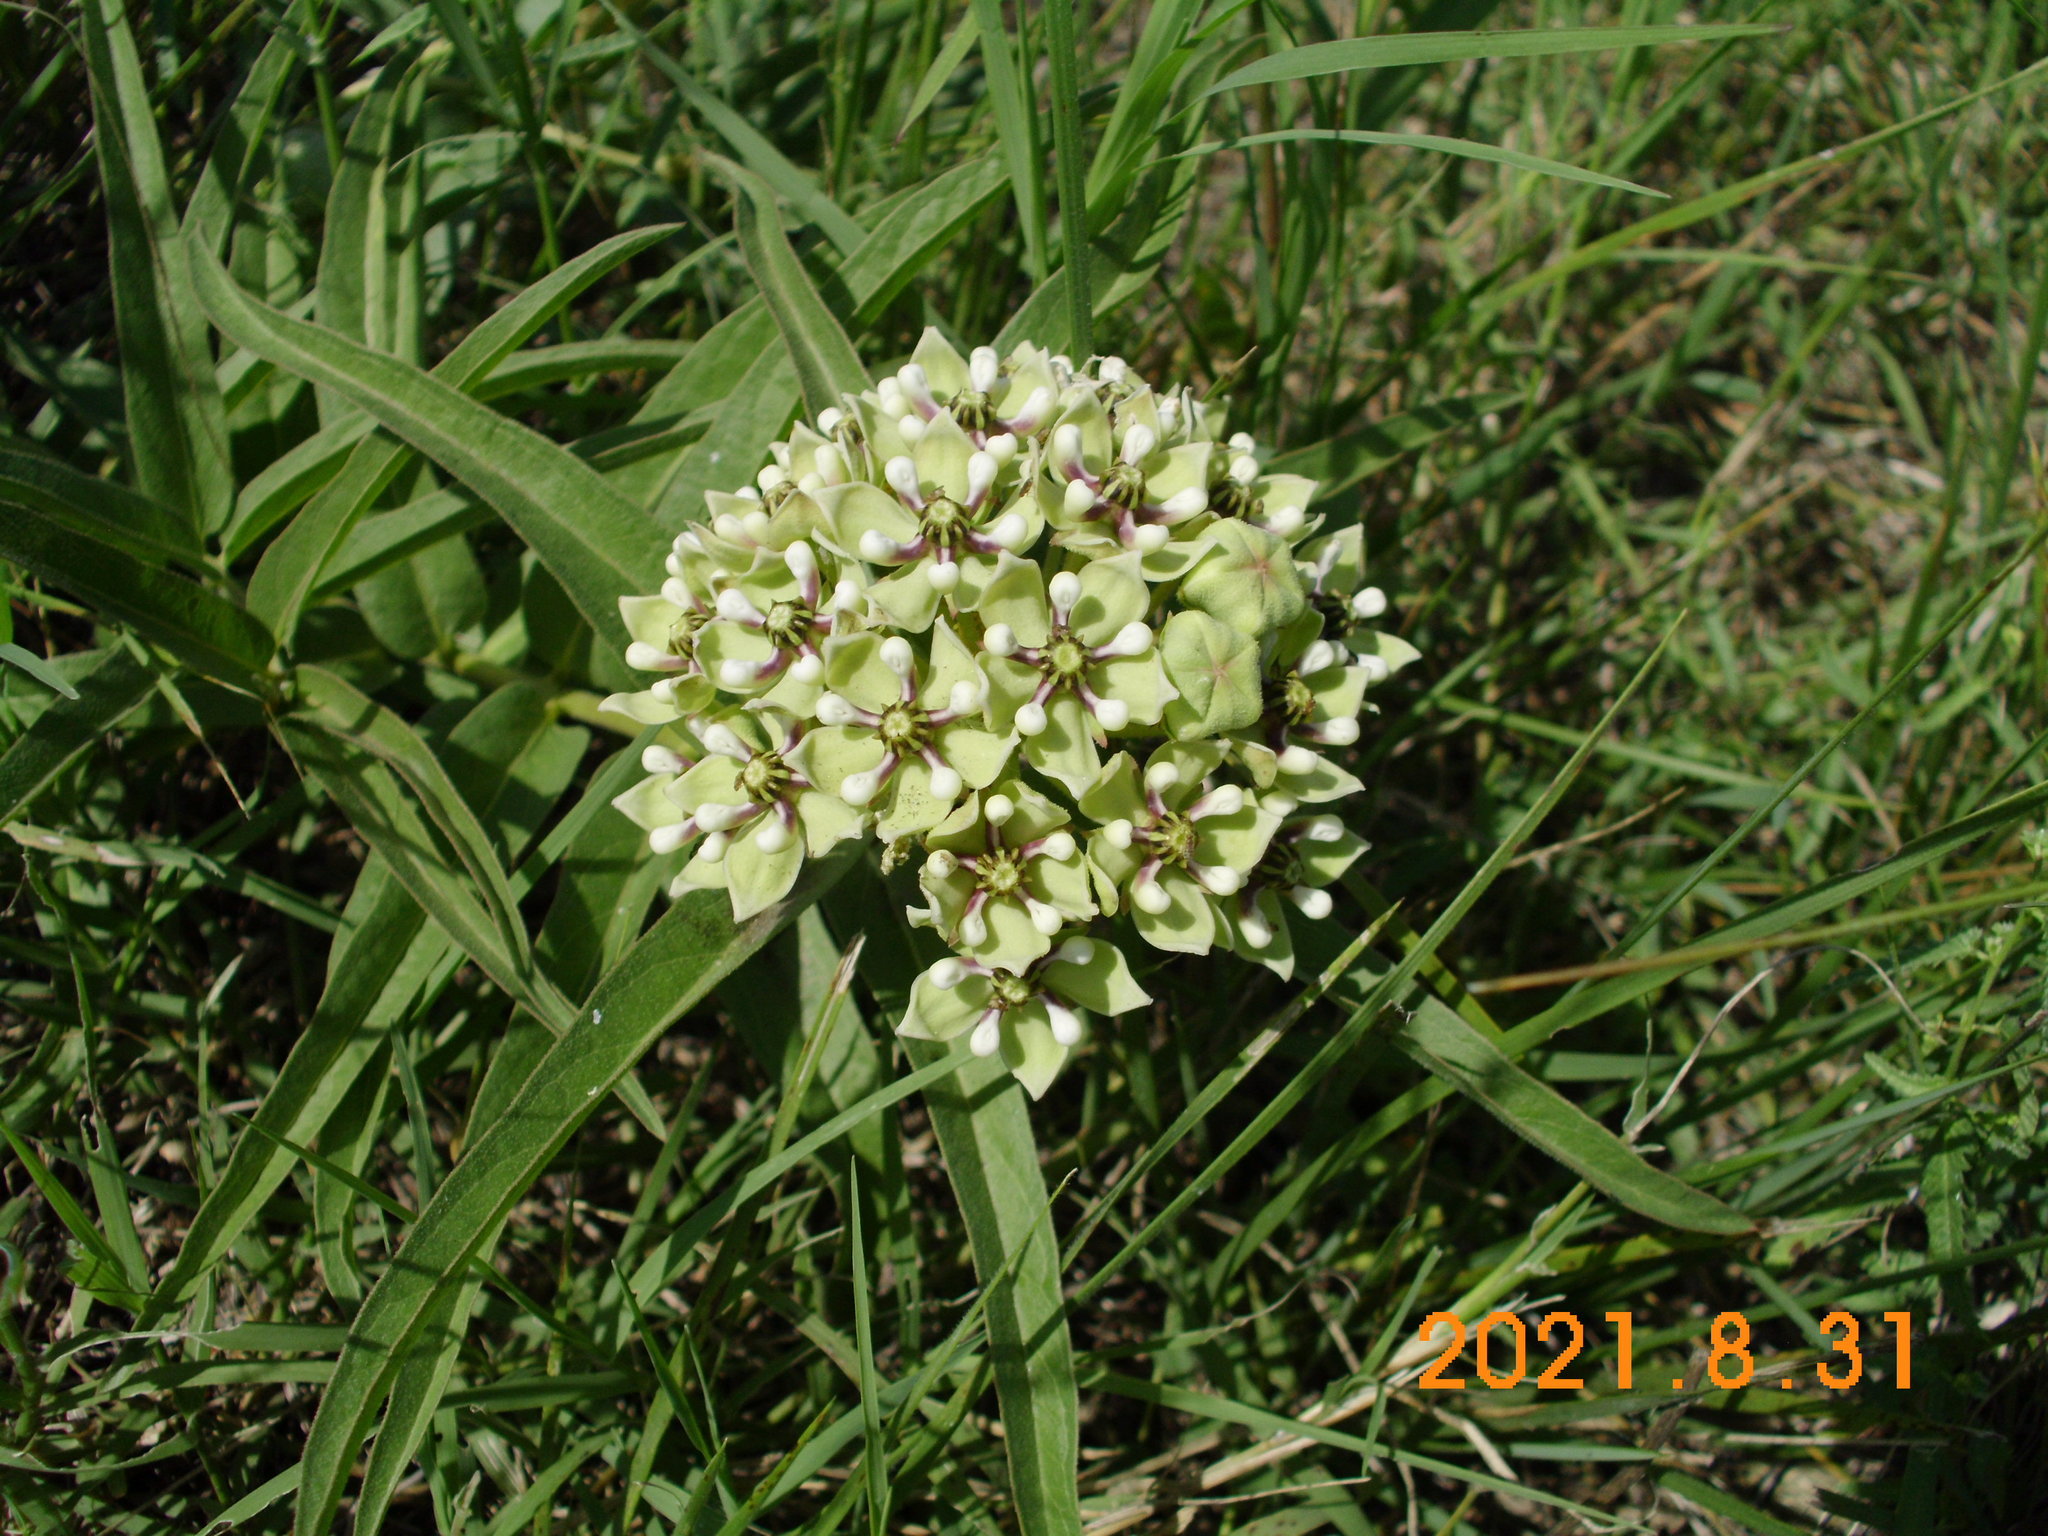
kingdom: Plantae
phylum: Tracheophyta
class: Magnoliopsida
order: Gentianales
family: Apocynaceae
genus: Asclepias
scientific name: Asclepias asperula
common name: Antelope horns
